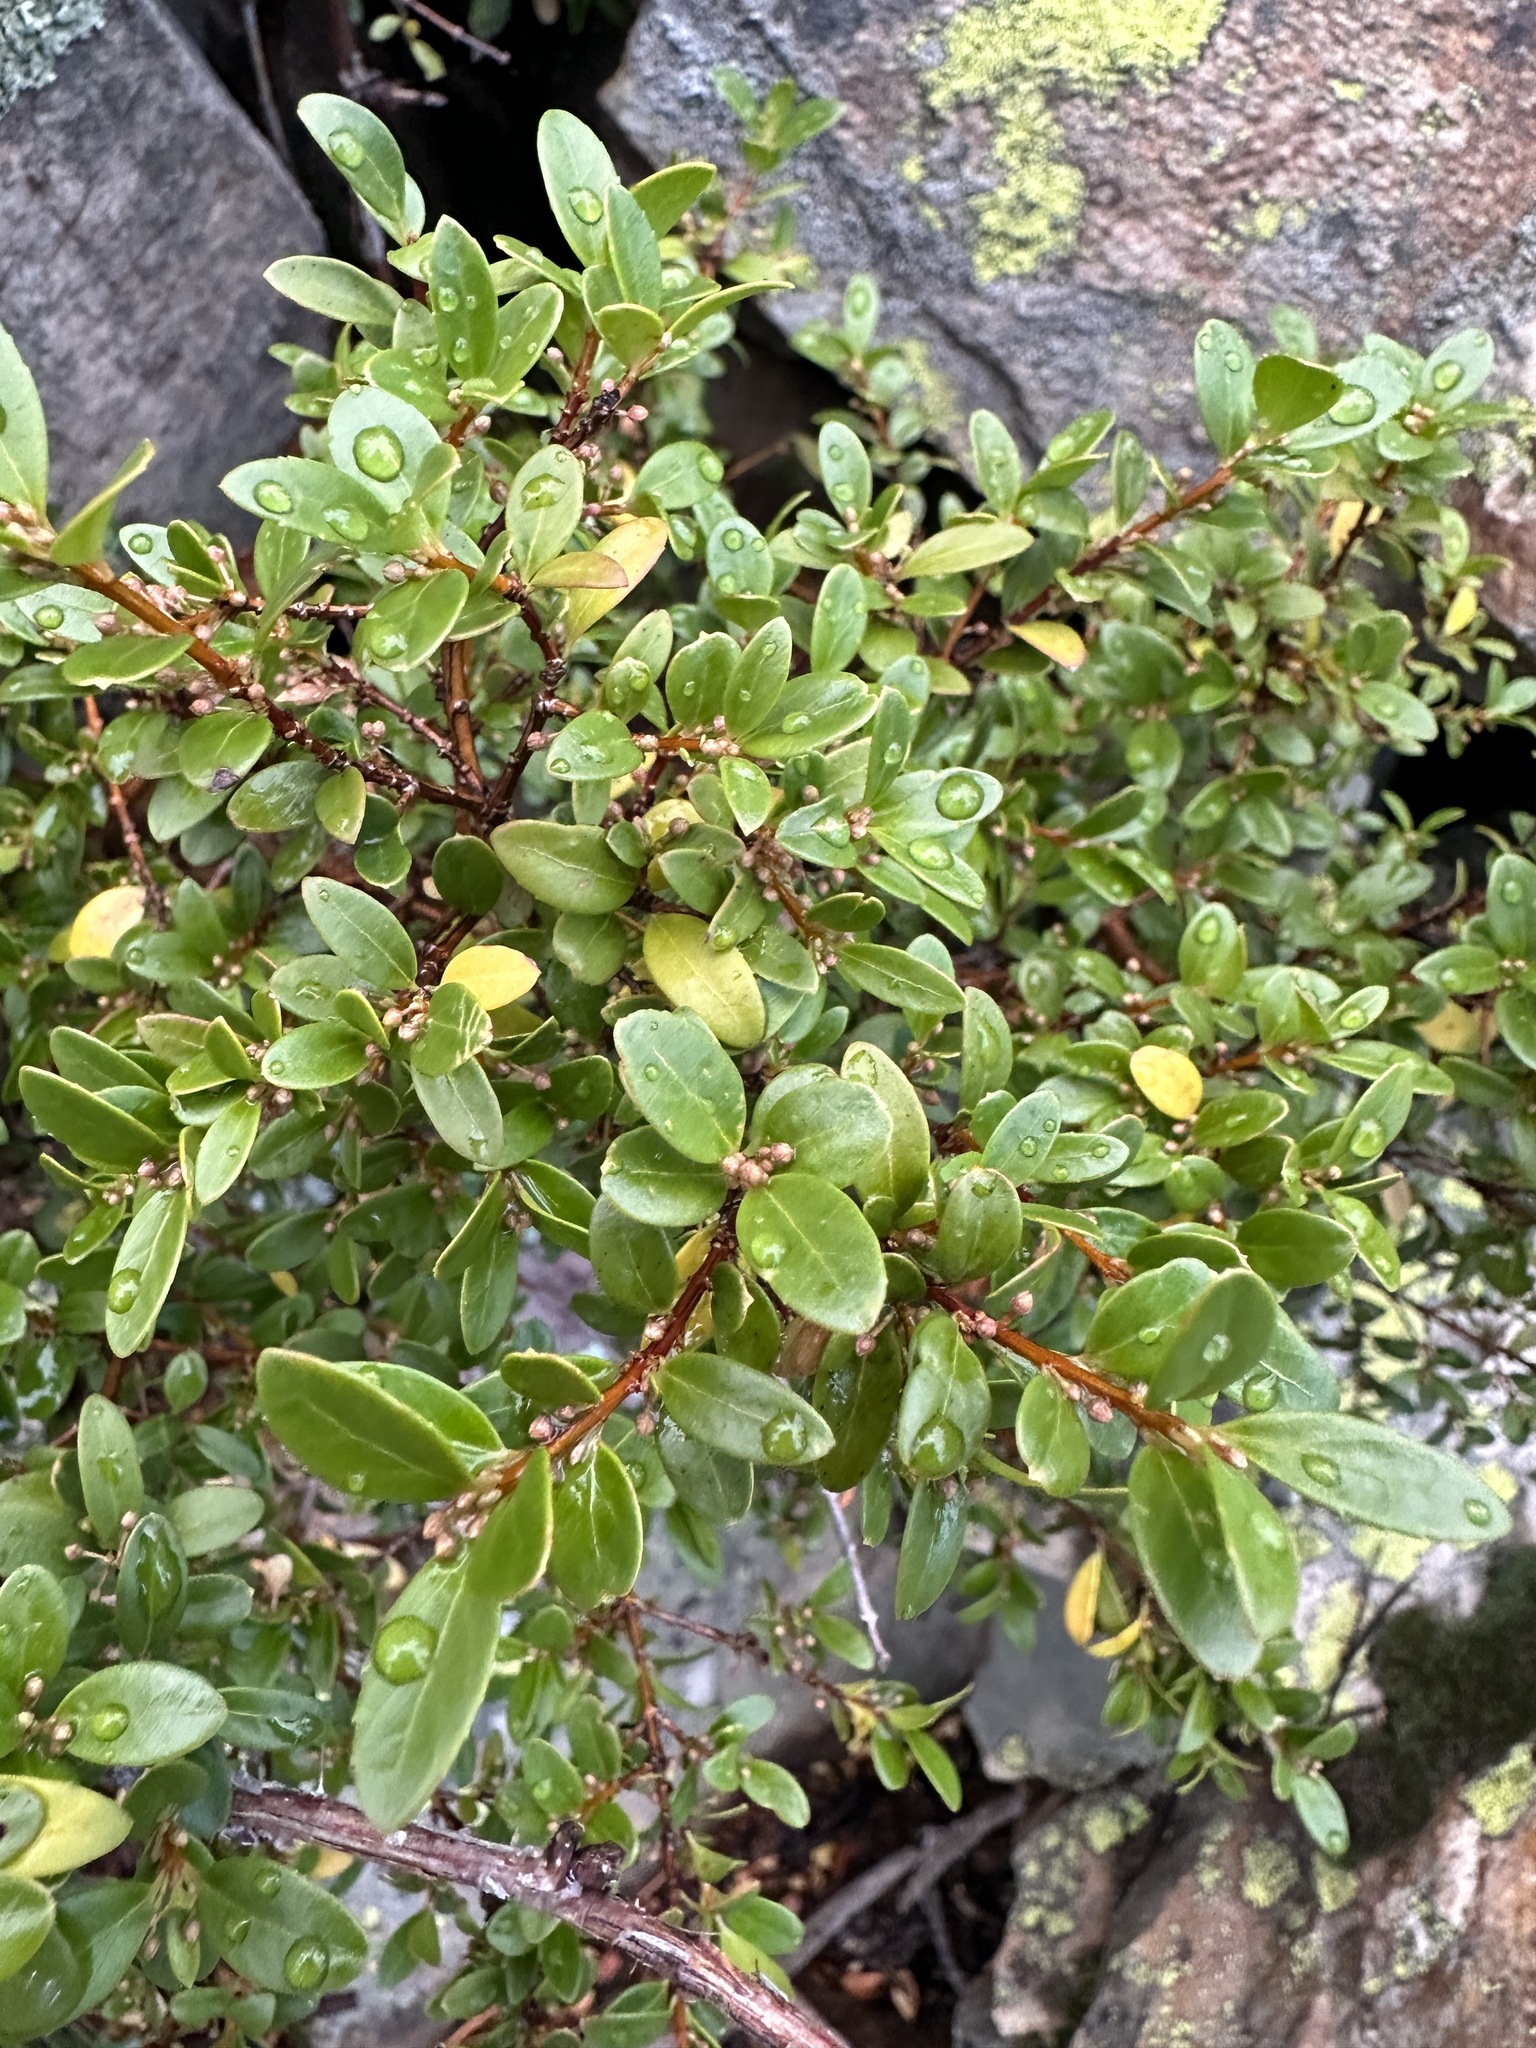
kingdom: Plantae
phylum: Tracheophyta
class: Magnoliopsida
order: Celastrales
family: Celastraceae
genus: Paxistima
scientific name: Paxistima myrsinites
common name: Mountain-lover
